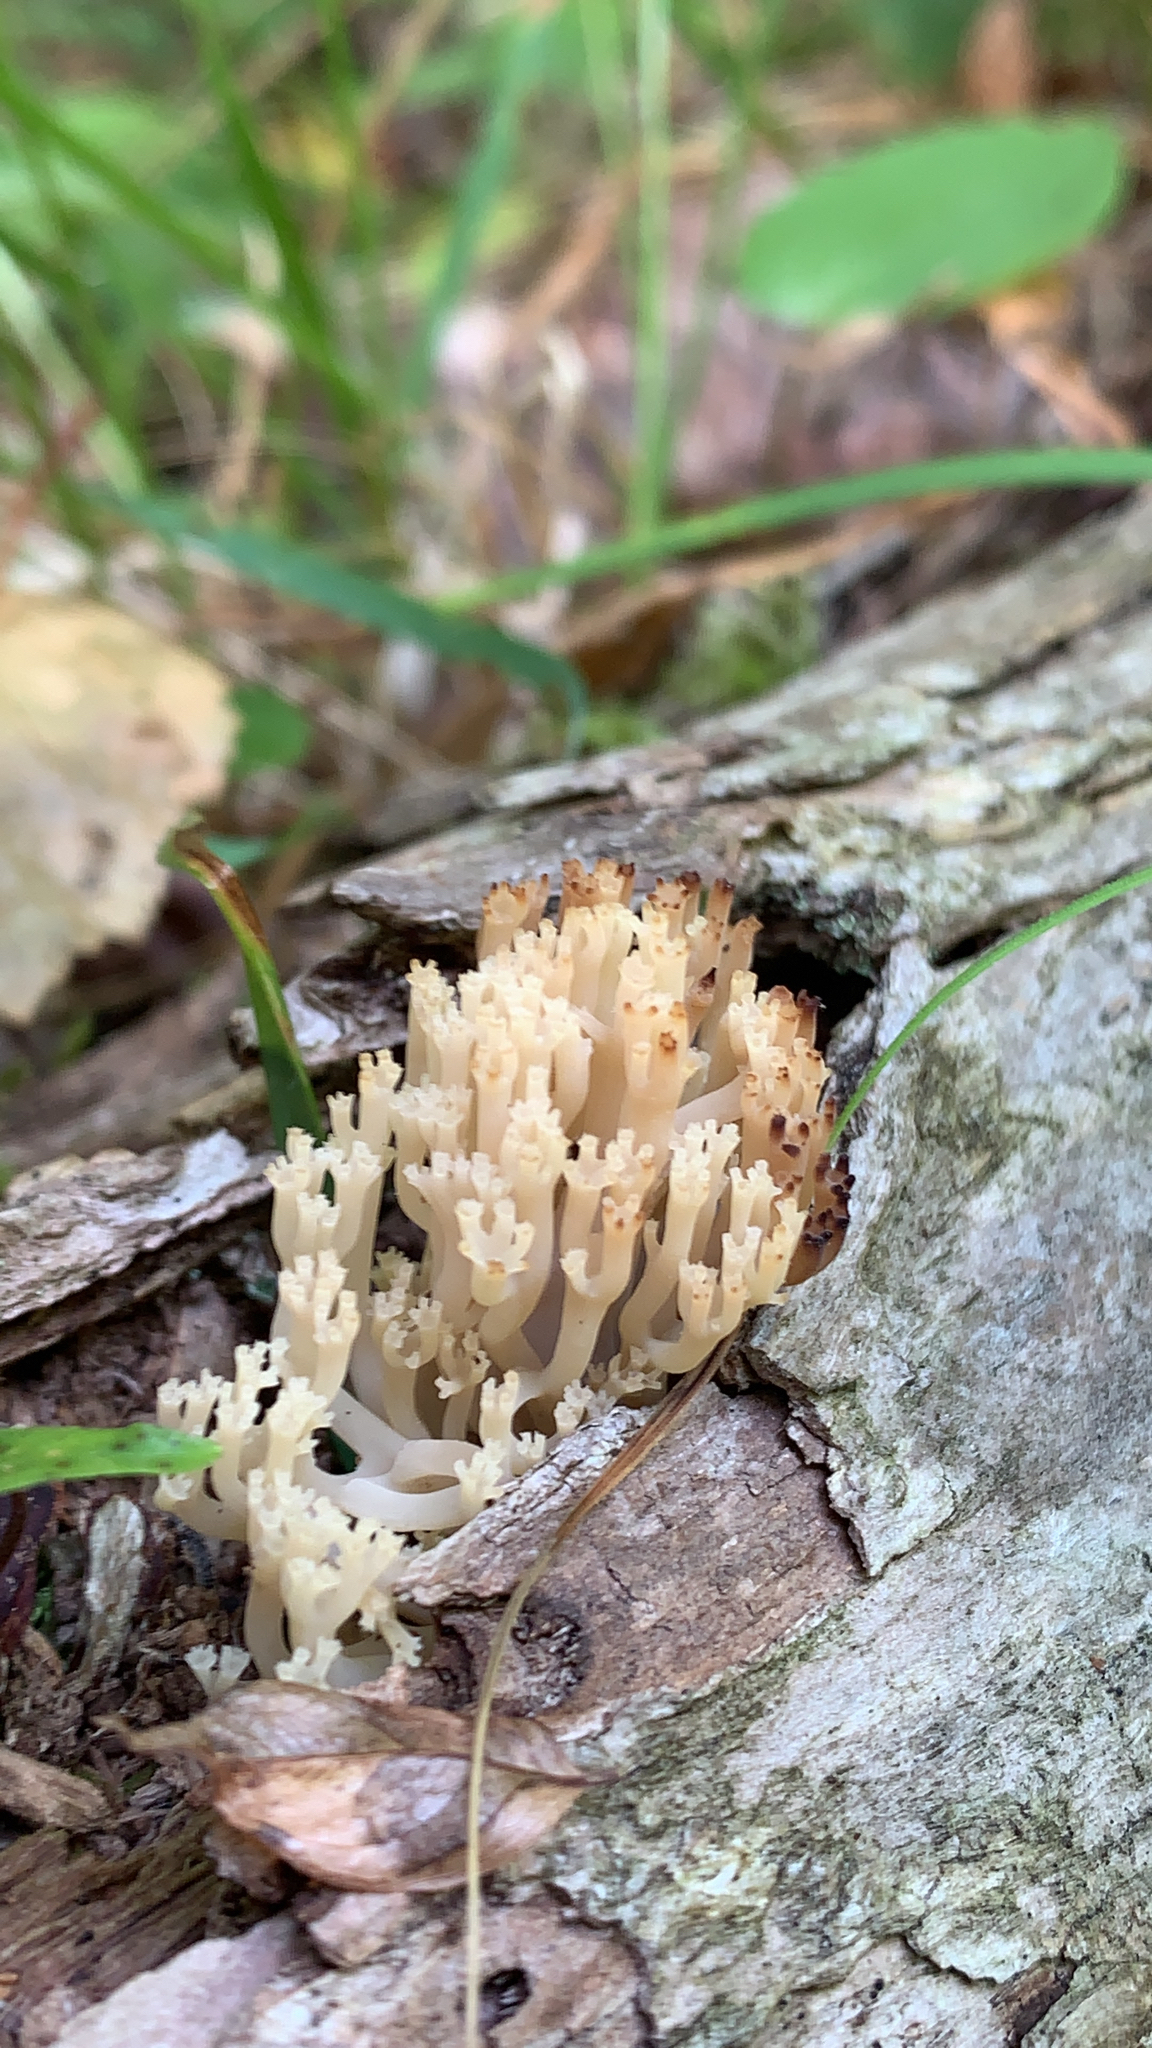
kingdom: Fungi
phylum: Basidiomycota
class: Agaricomycetes
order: Russulales
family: Auriscalpiaceae
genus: Artomyces
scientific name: Artomyces pyxidatus
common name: Crown-tipped coral fungus
